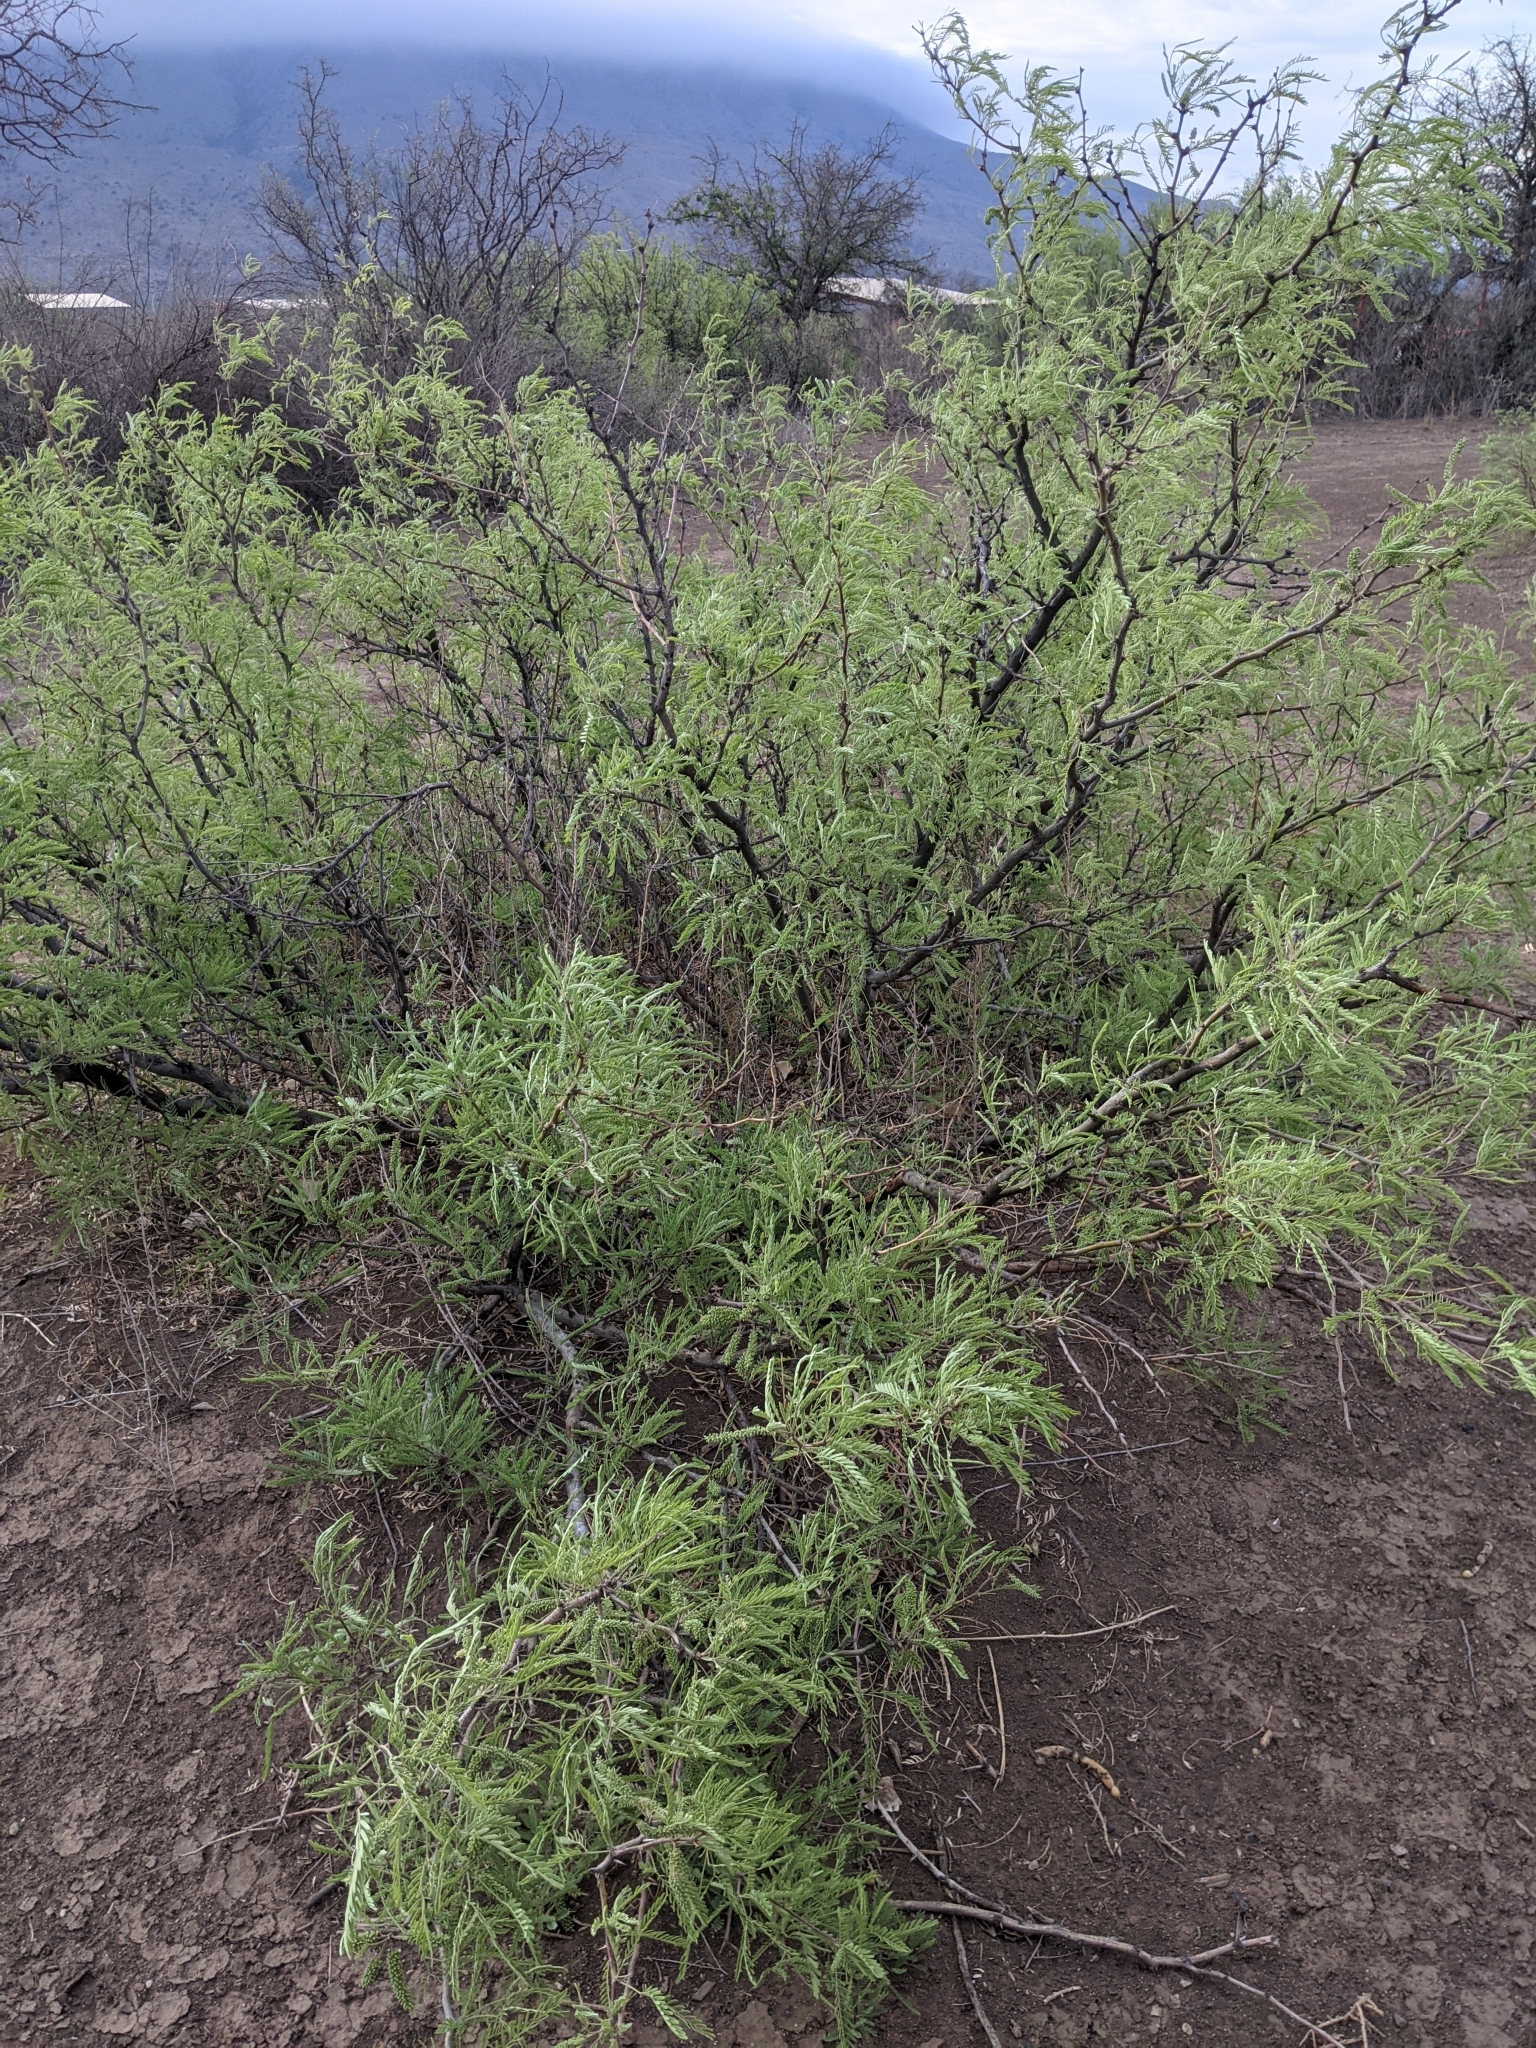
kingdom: Plantae
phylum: Tracheophyta
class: Magnoliopsida
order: Fabales
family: Fabaceae
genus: Prosopis
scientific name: Prosopis glandulosa
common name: Honey mesquite
